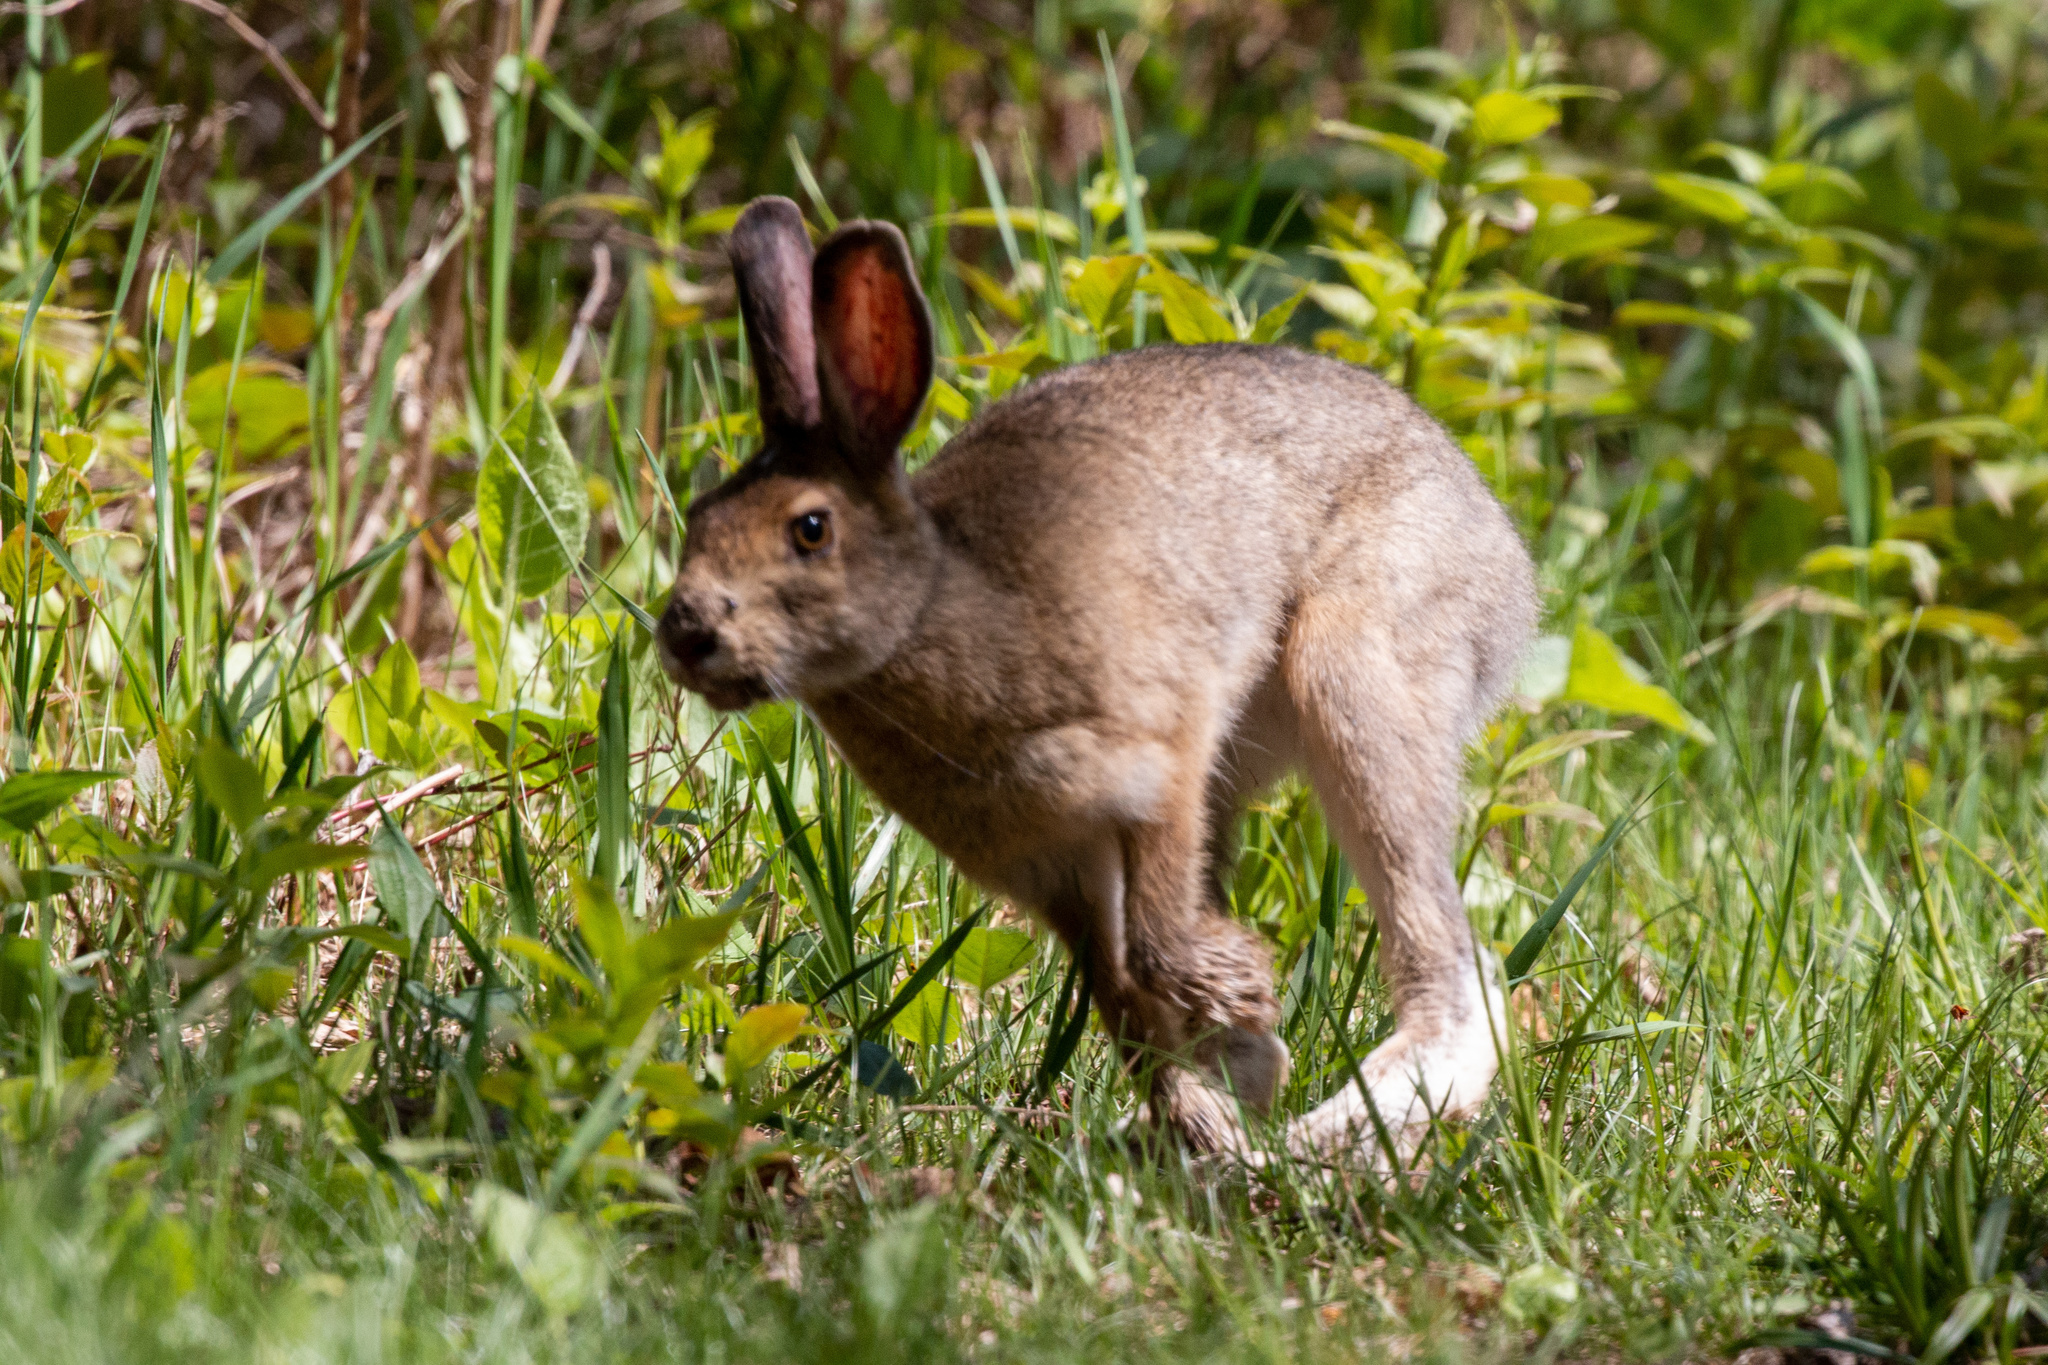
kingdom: Animalia
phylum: Chordata
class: Mammalia
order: Lagomorpha
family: Leporidae
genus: Lepus
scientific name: Lepus americanus
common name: Snowshoe hare
